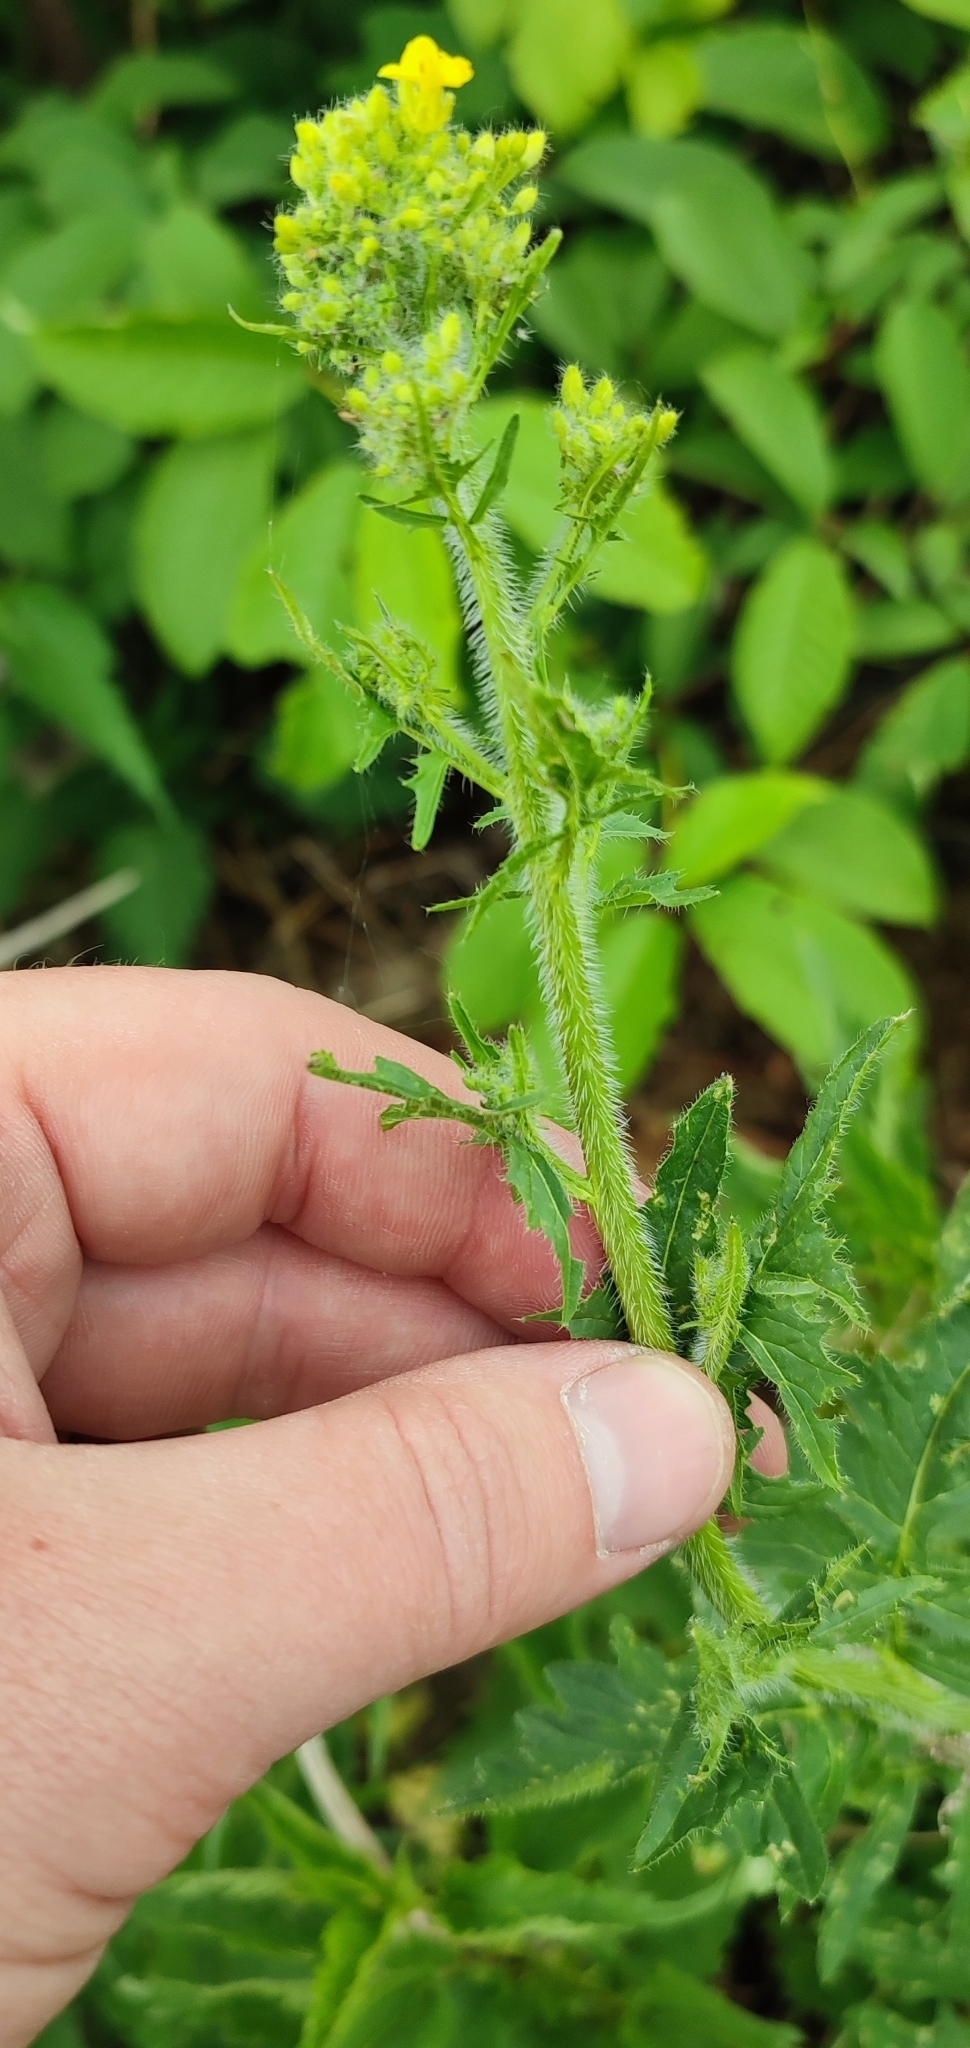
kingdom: Plantae
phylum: Tracheophyta
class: Magnoliopsida
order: Brassicales
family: Brassicaceae
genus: Sisymbrium
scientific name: Sisymbrium loeselii
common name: False london-rocket
